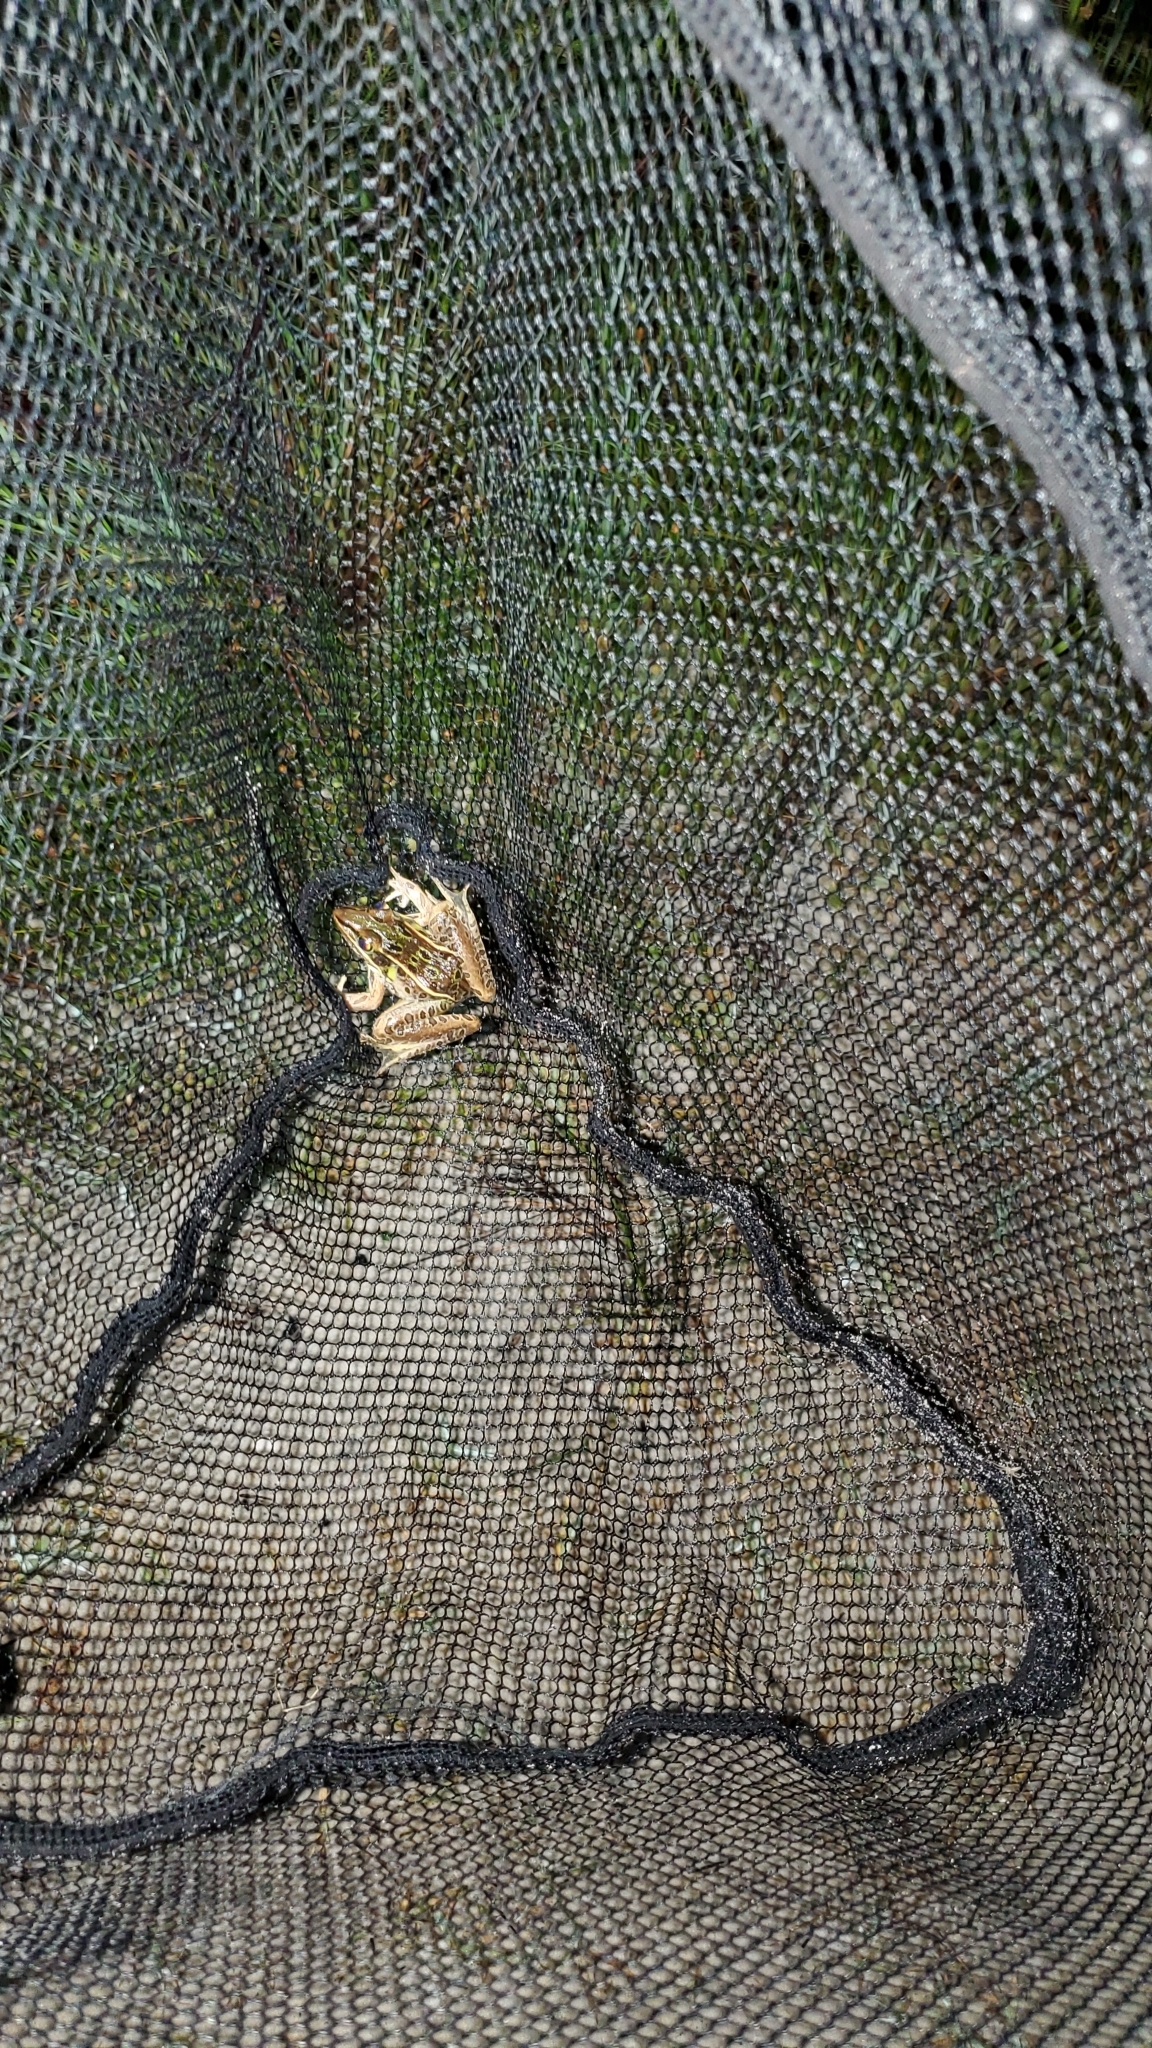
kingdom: Animalia
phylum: Chordata
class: Amphibia
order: Anura
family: Ranidae
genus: Lithobates
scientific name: Lithobates sphenocephalus
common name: Southern leopard frog
